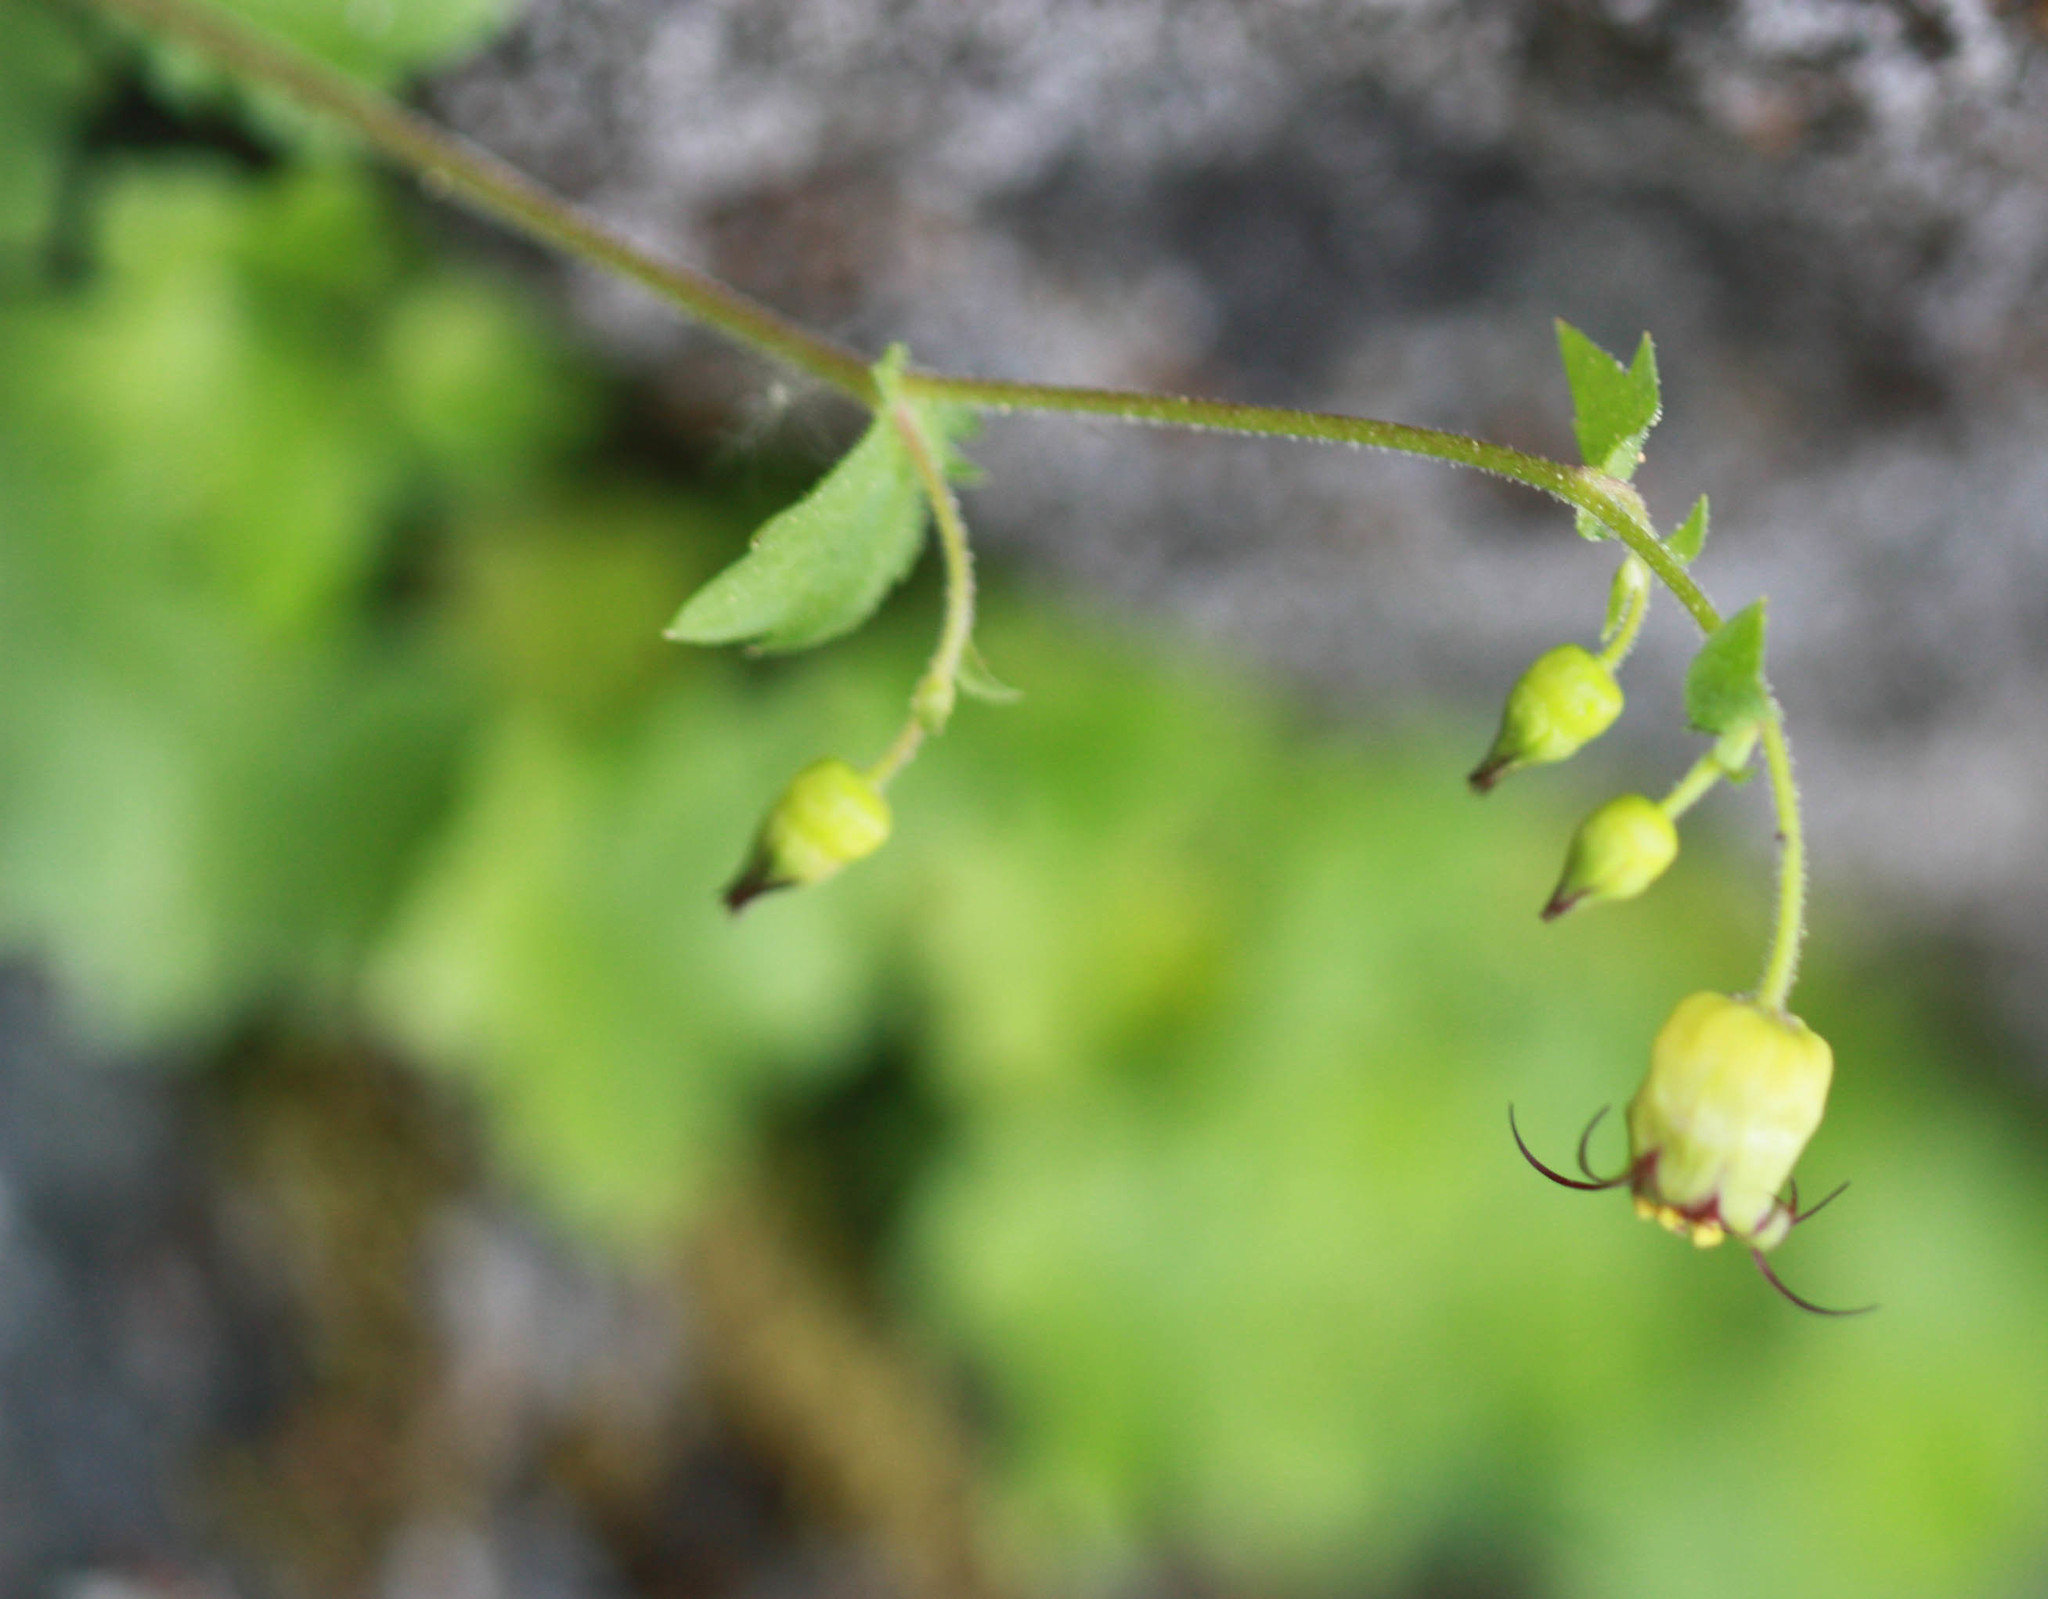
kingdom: Plantae
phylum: Tracheophyta
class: Magnoliopsida
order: Saxifragales
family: Saxifragaceae
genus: Bolandra
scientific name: Bolandra californica
